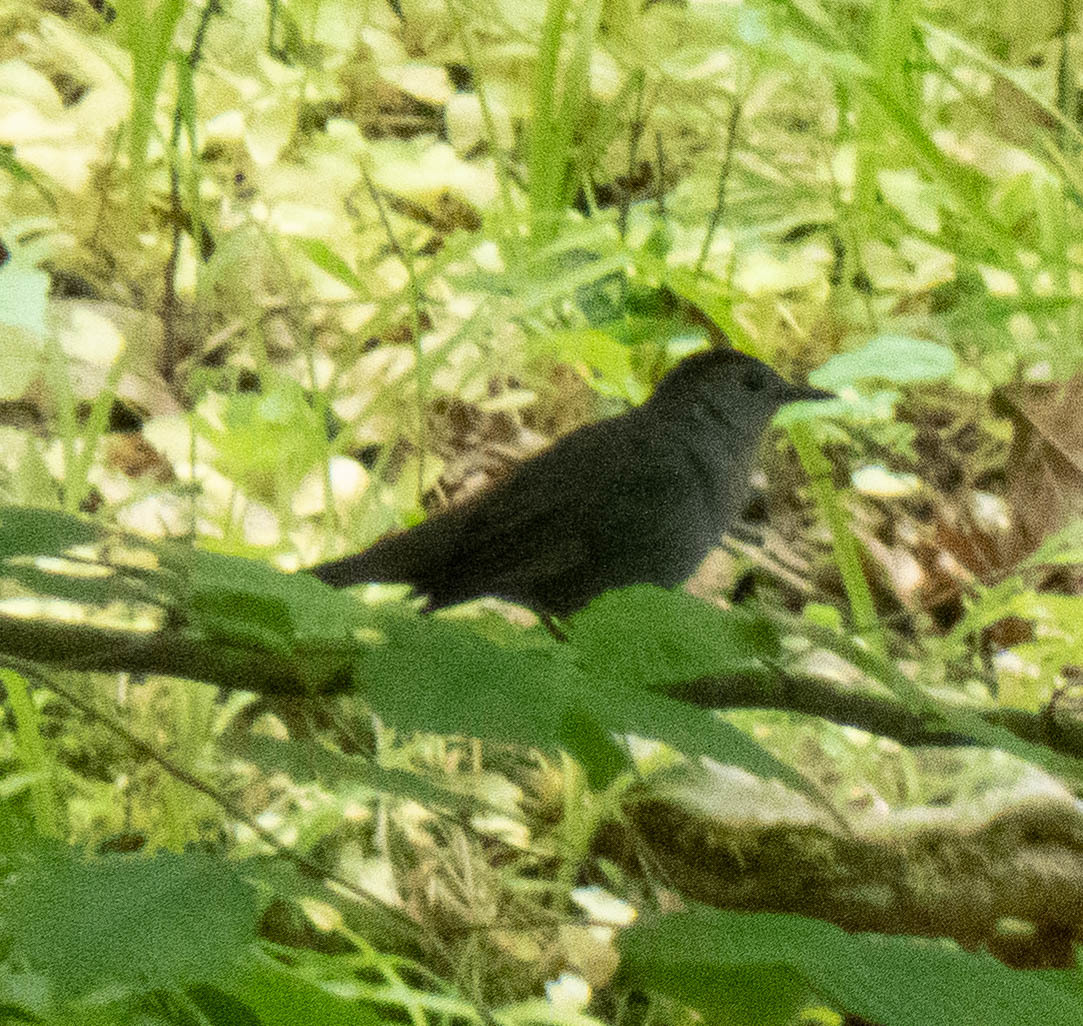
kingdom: Animalia
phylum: Chordata
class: Aves
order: Passeriformes
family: Mimidae
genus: Dumetella
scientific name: Dumetella carolinensis
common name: Gray catbird
